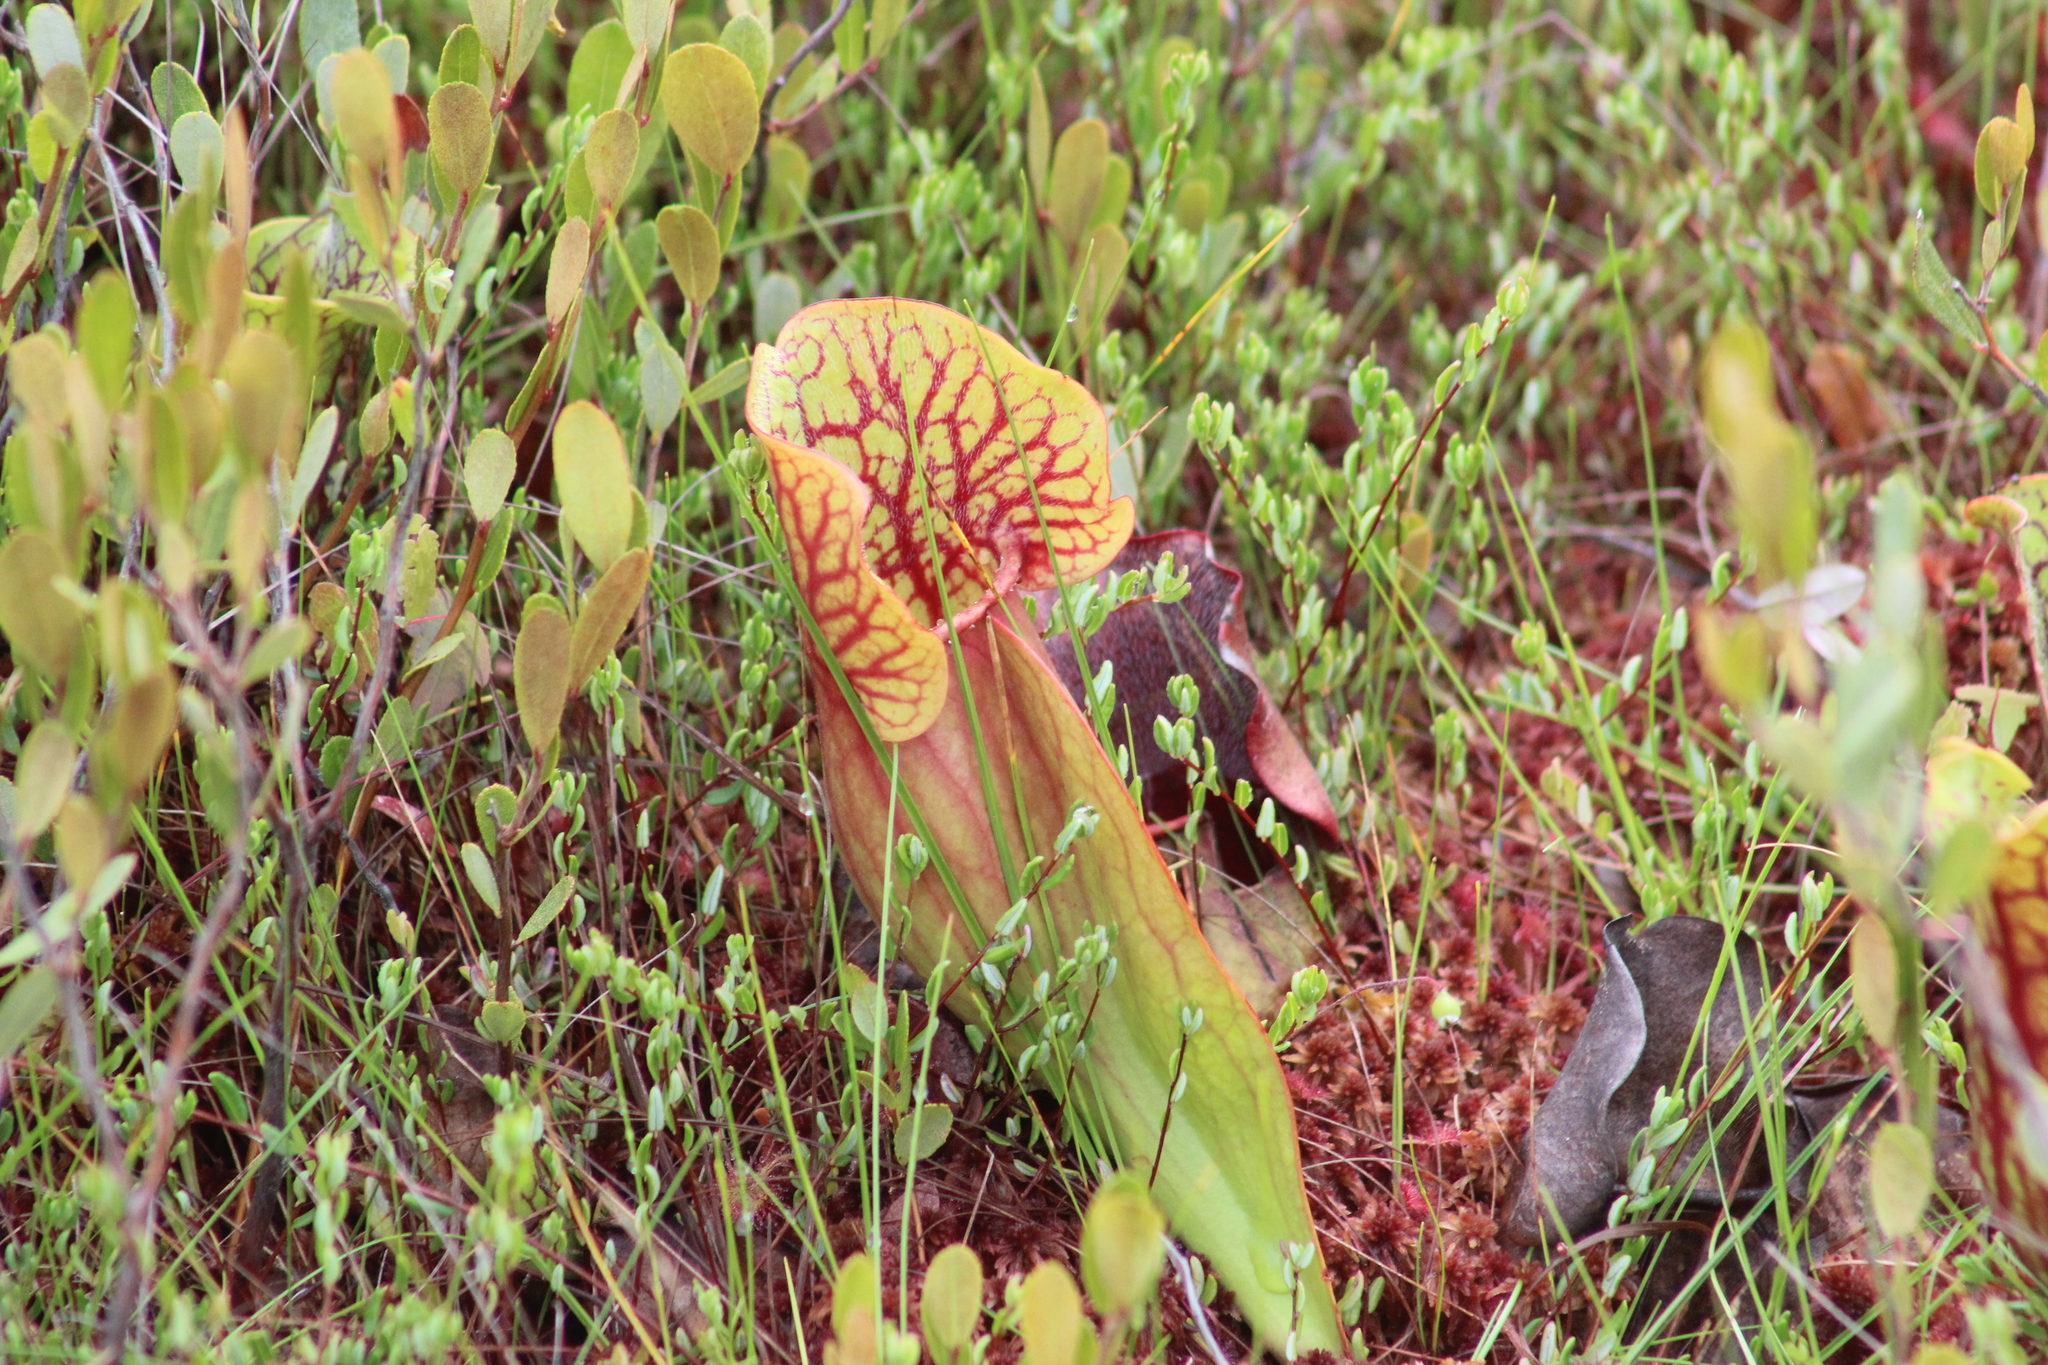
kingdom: Plantae
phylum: Tracheophyta
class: Magnoliopsida
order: Ericales
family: Sarraceniaceae
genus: Sarracenia
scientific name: Sarracenia purpurea
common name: Pitcherplant
